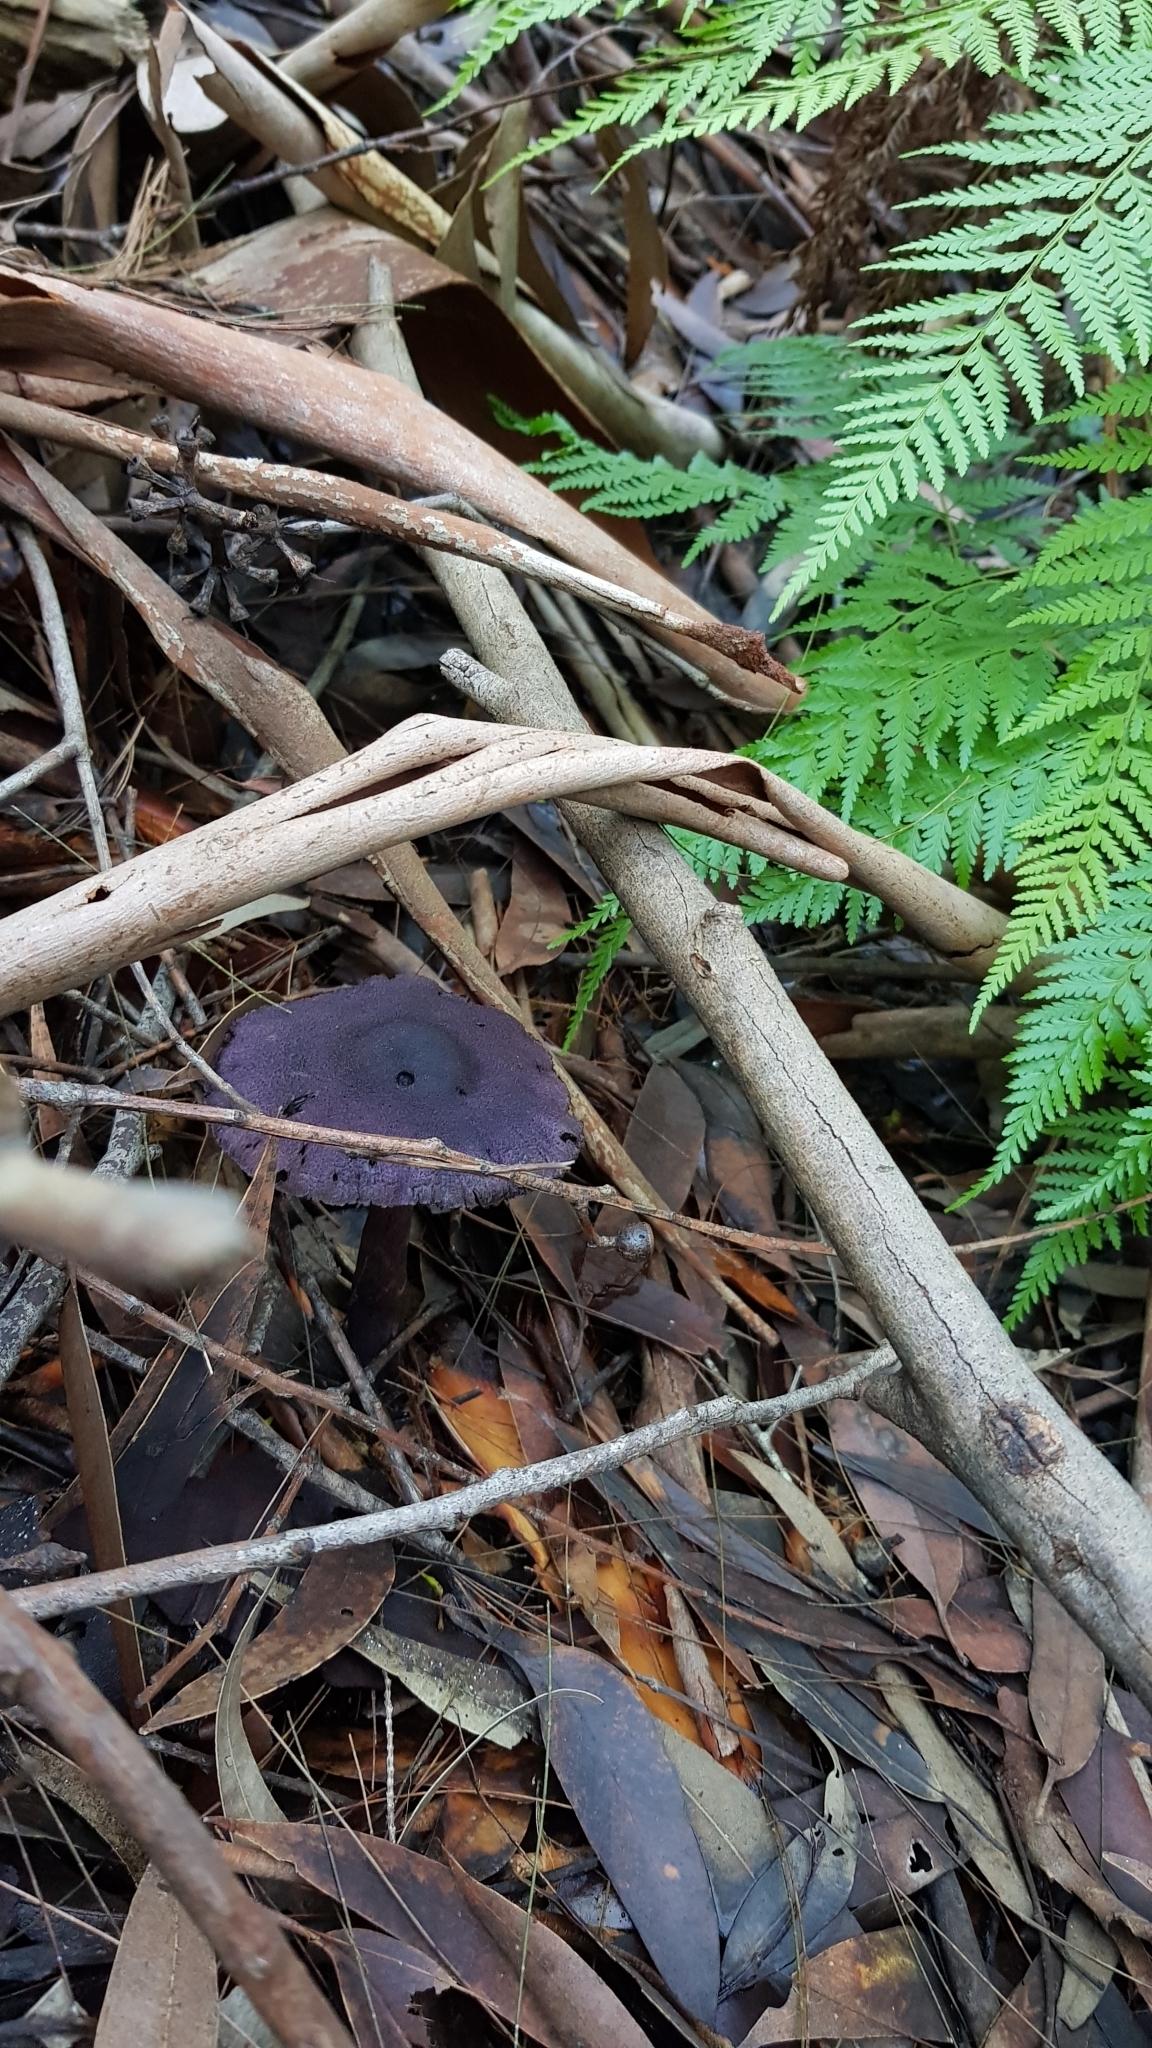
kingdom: Fungi
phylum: Basidiomycota
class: Agaricomycetes
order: Agaricales
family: Cortinariaceae
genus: Cortinarius
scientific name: Cortinarius kioloensis
